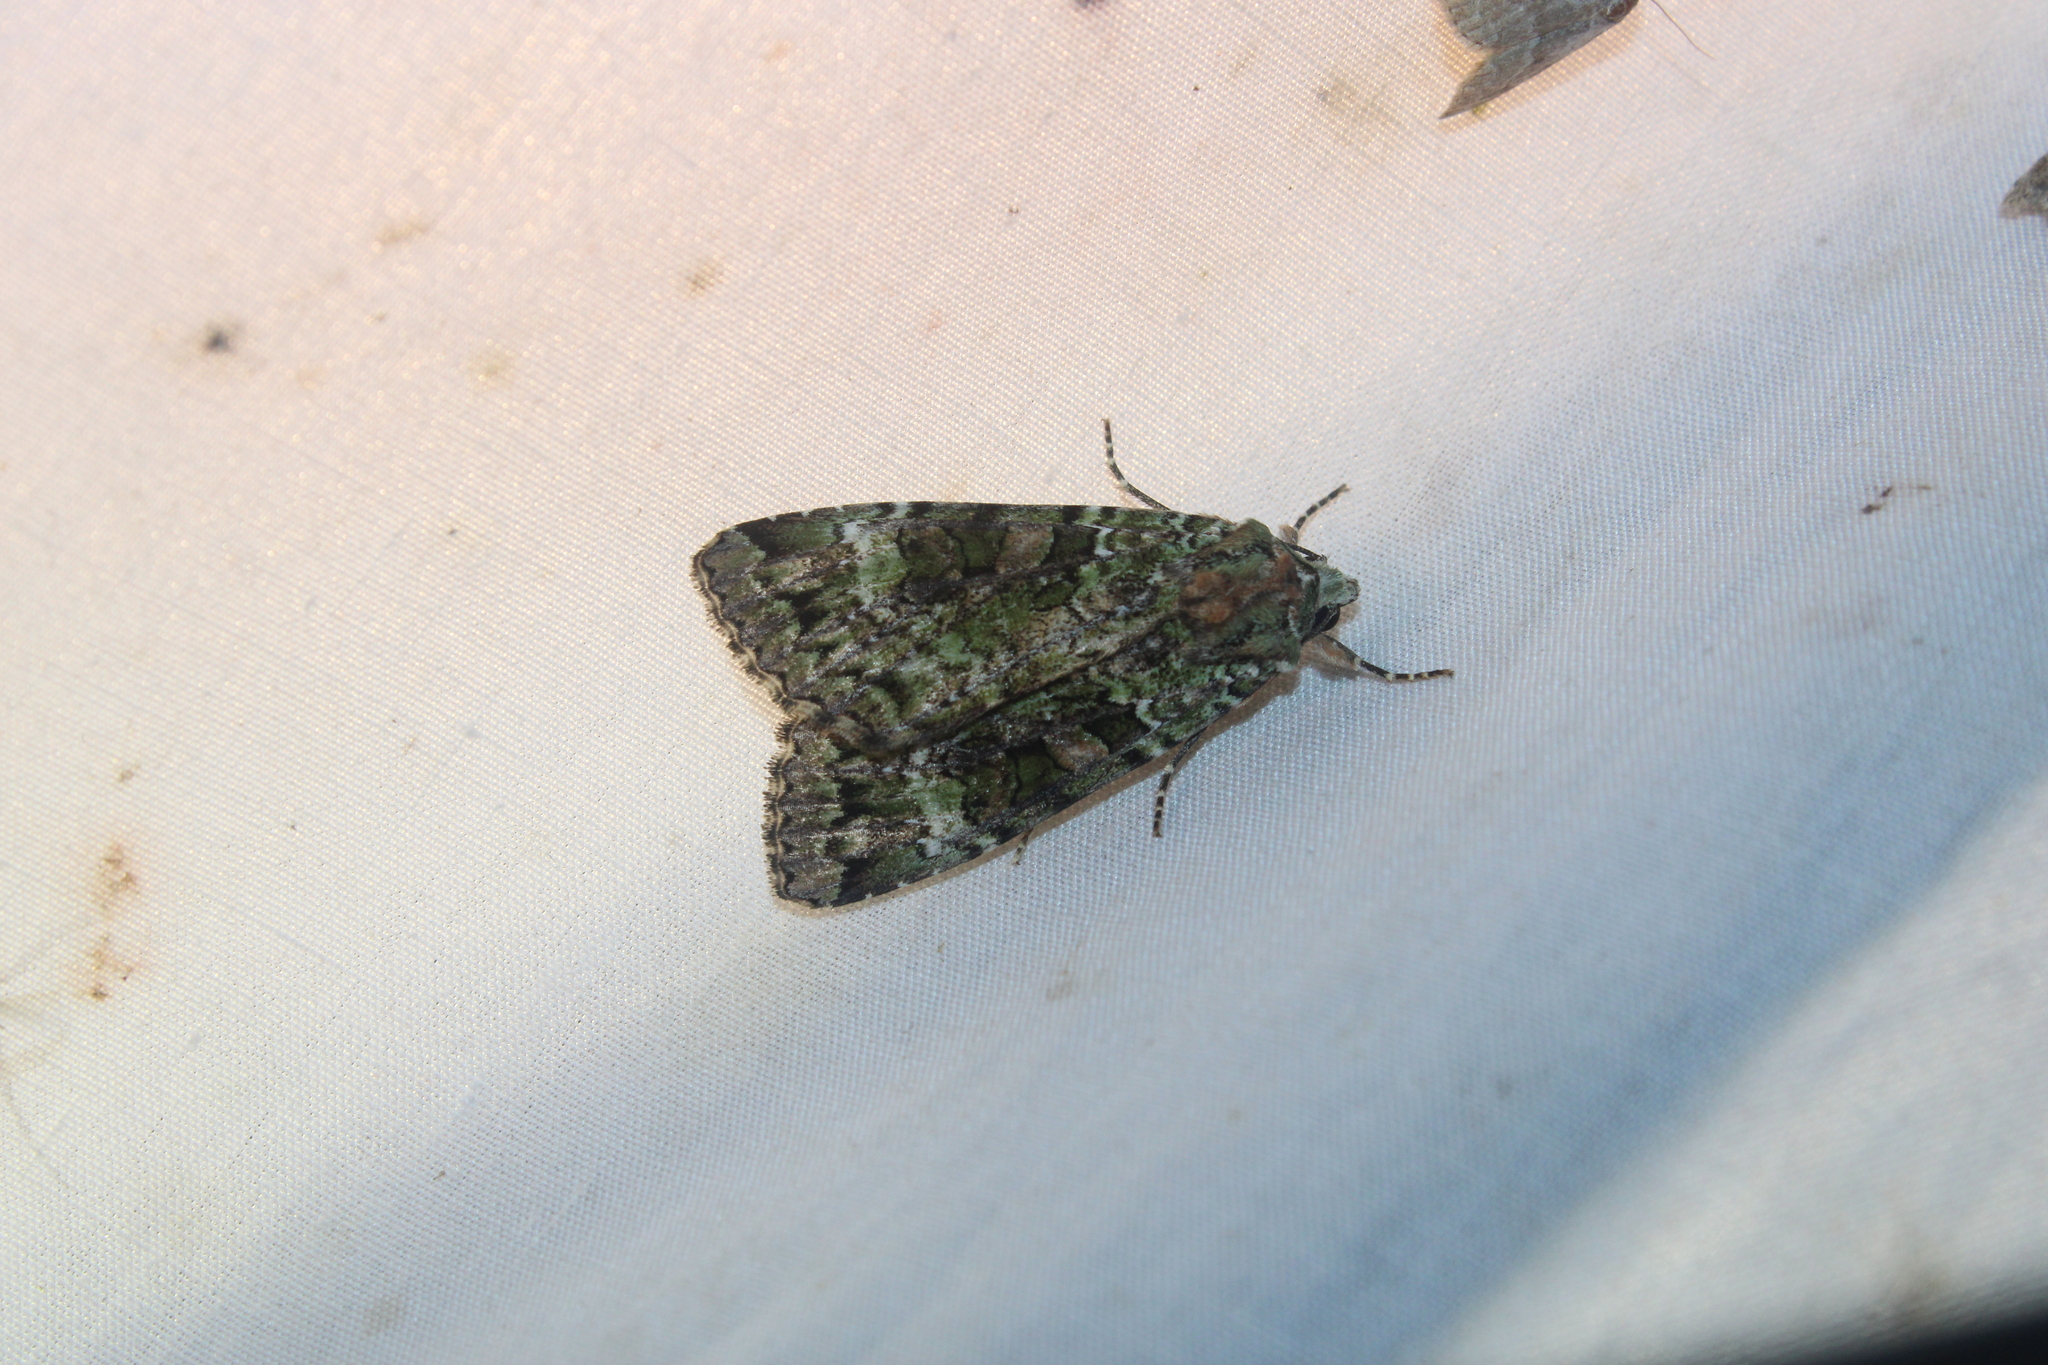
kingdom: Animalia
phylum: Arthropoda
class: Insecta
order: Lepidoptera
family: Noctuidae
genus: Anaplectoides
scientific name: Anaplectoides prasina
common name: Green arches
